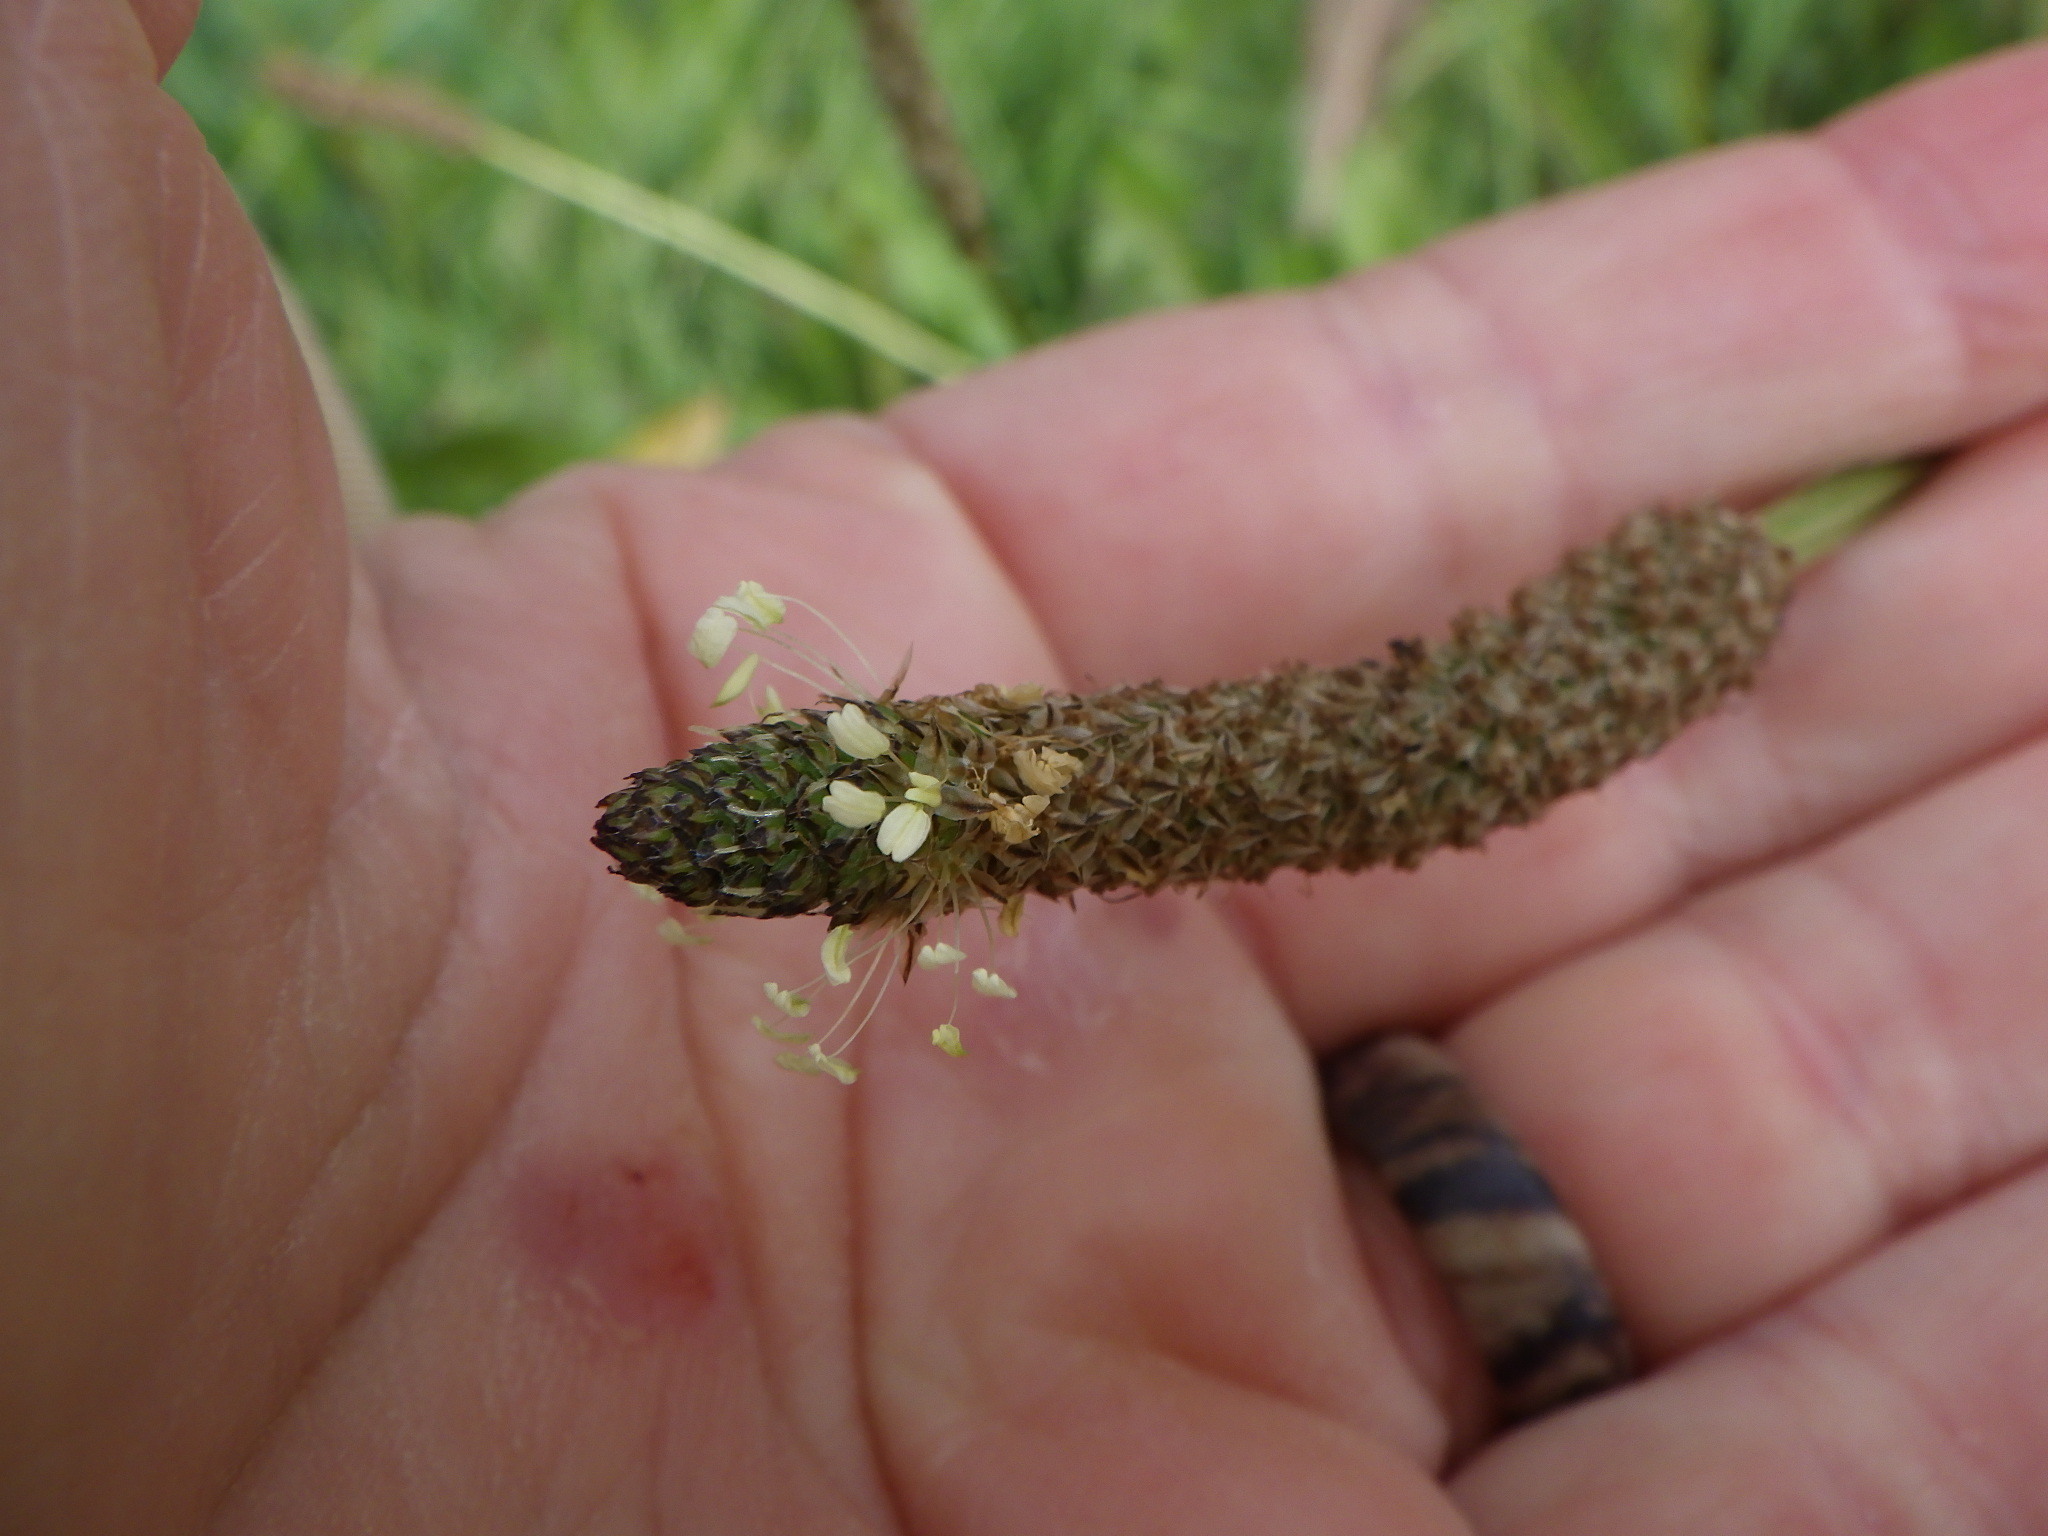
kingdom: Plantae
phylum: Tracheophyta
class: Magnoliopsida
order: Lamiales
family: Plantaginaceae
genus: Plantago
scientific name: Plantago lanceolata
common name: Ribwort plantain
